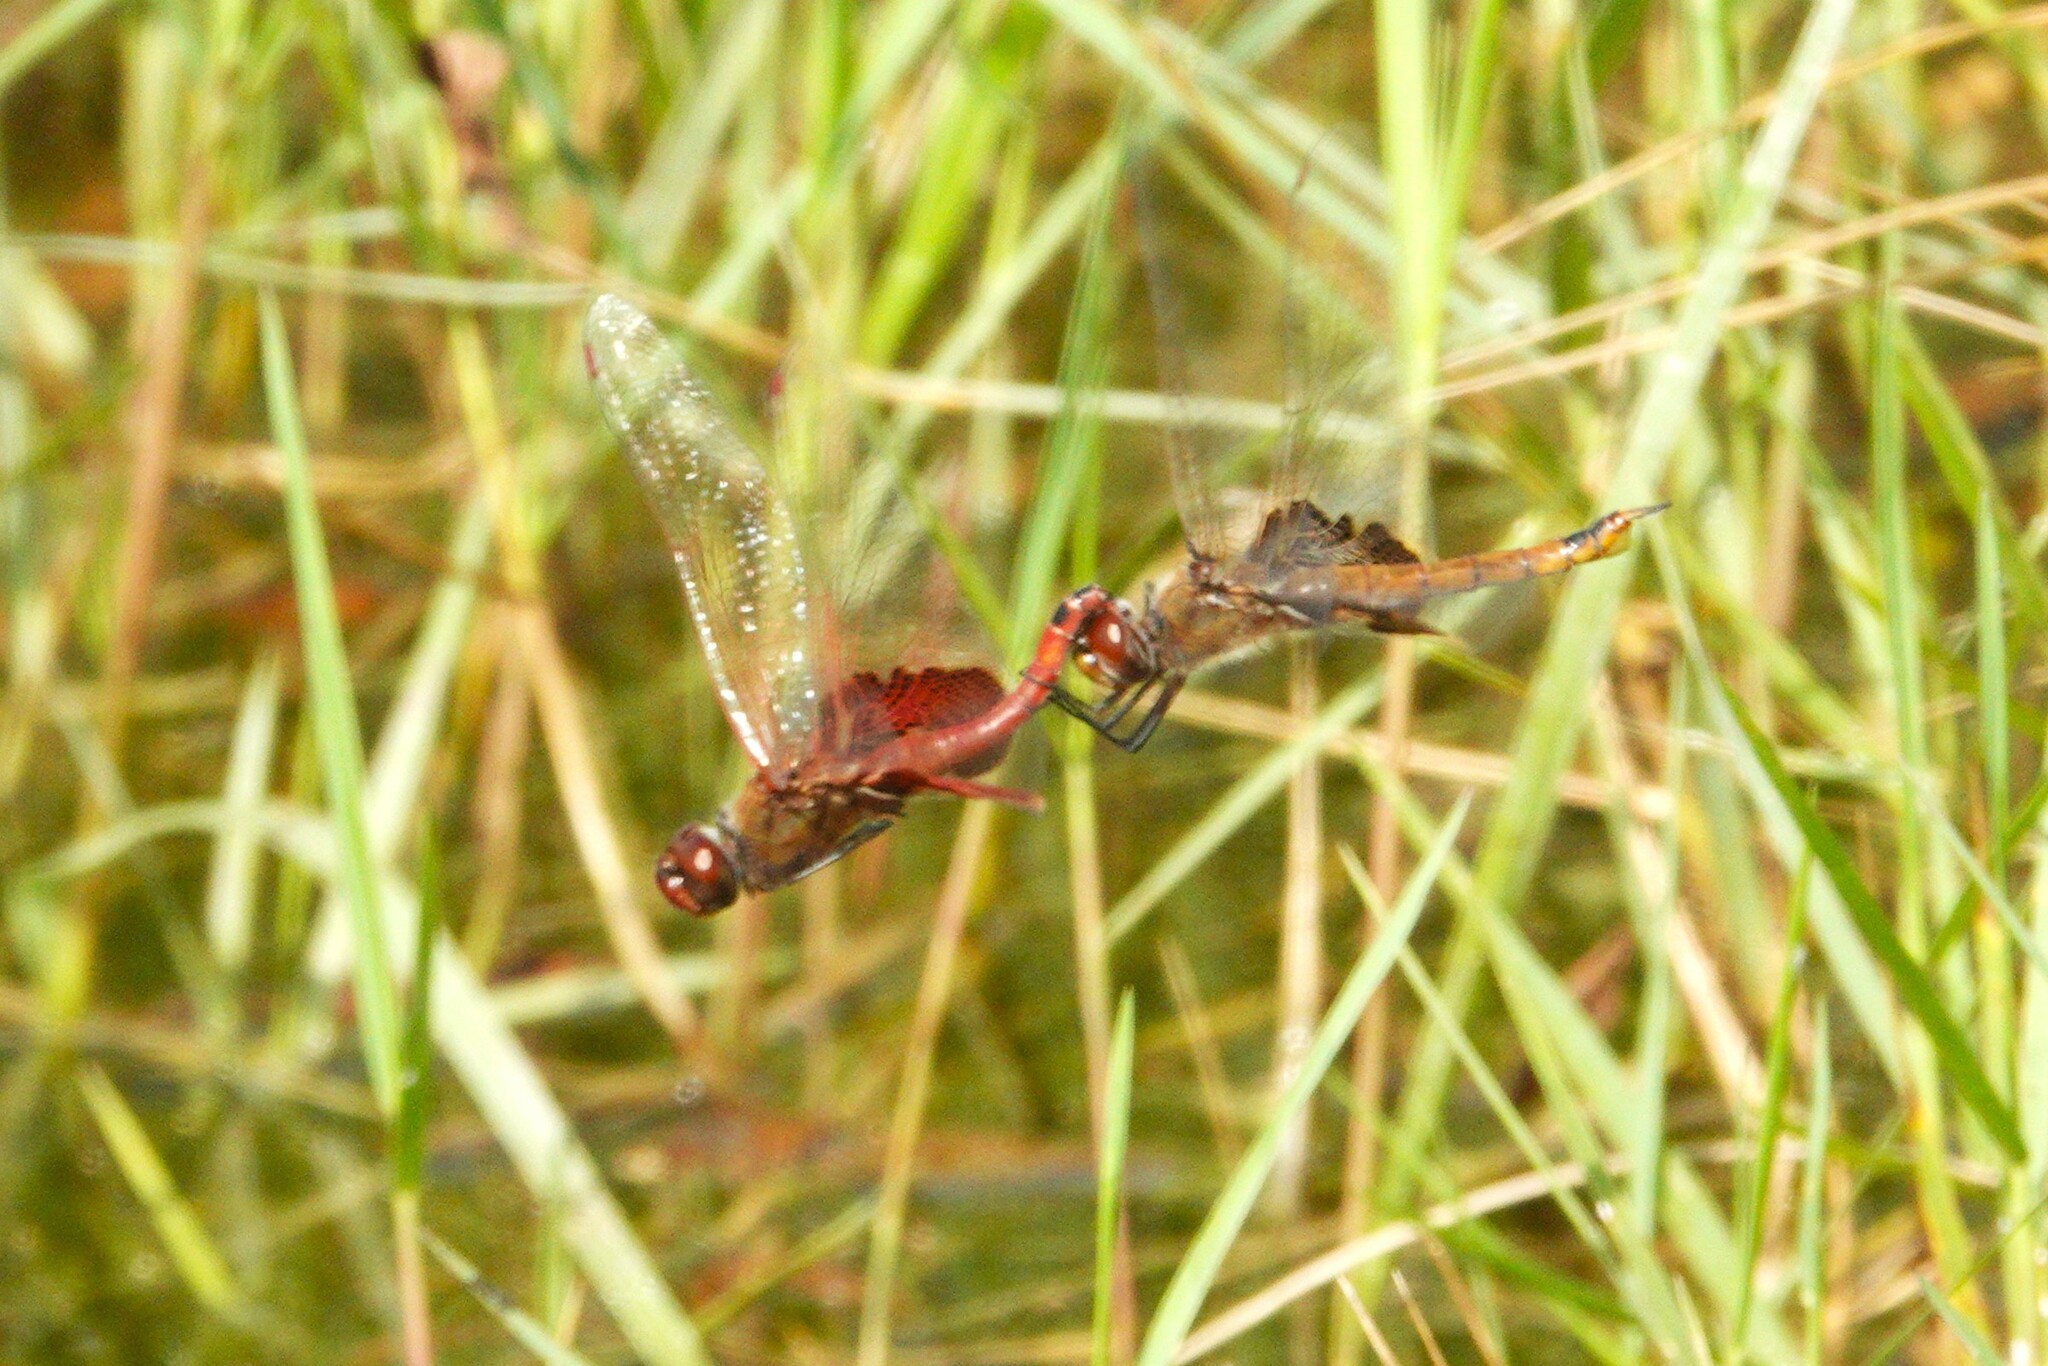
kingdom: Animalia
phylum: Arthropoda
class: Insecta
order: Odonata
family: Libellulidae
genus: Tramea
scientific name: Tramea onusta
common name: Red saddlebags
